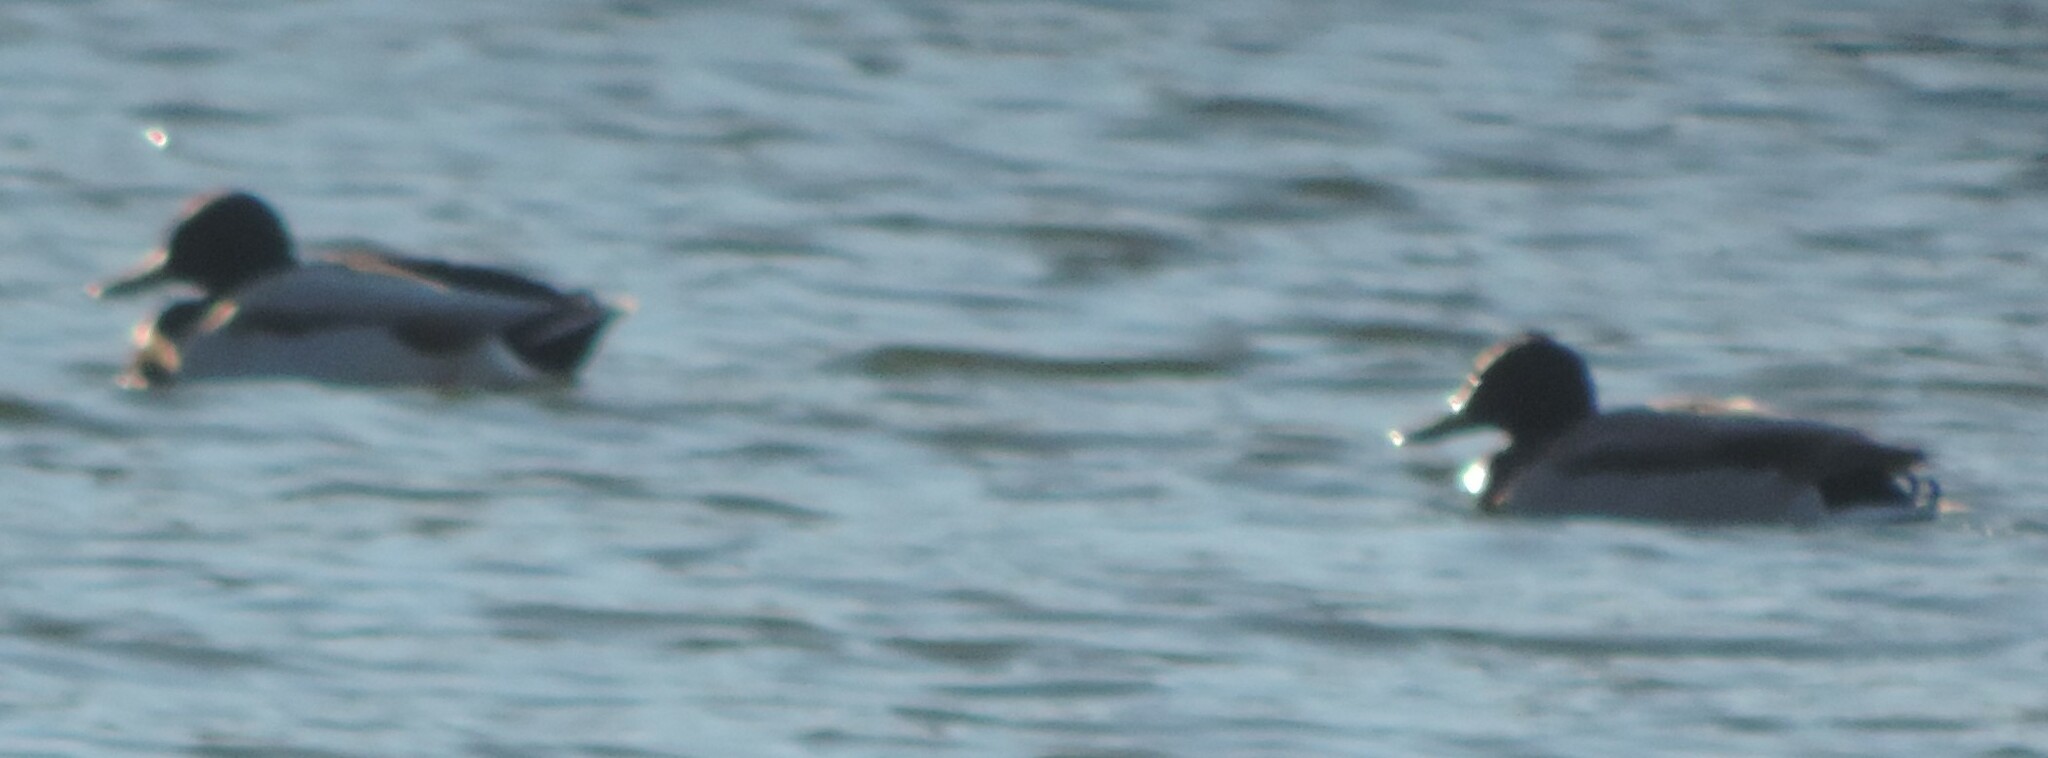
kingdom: Animalia
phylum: Chordata
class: Aves
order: Anseriformes
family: Anatidae
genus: Anas
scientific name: Anas platyrhynchos
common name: Mallard
